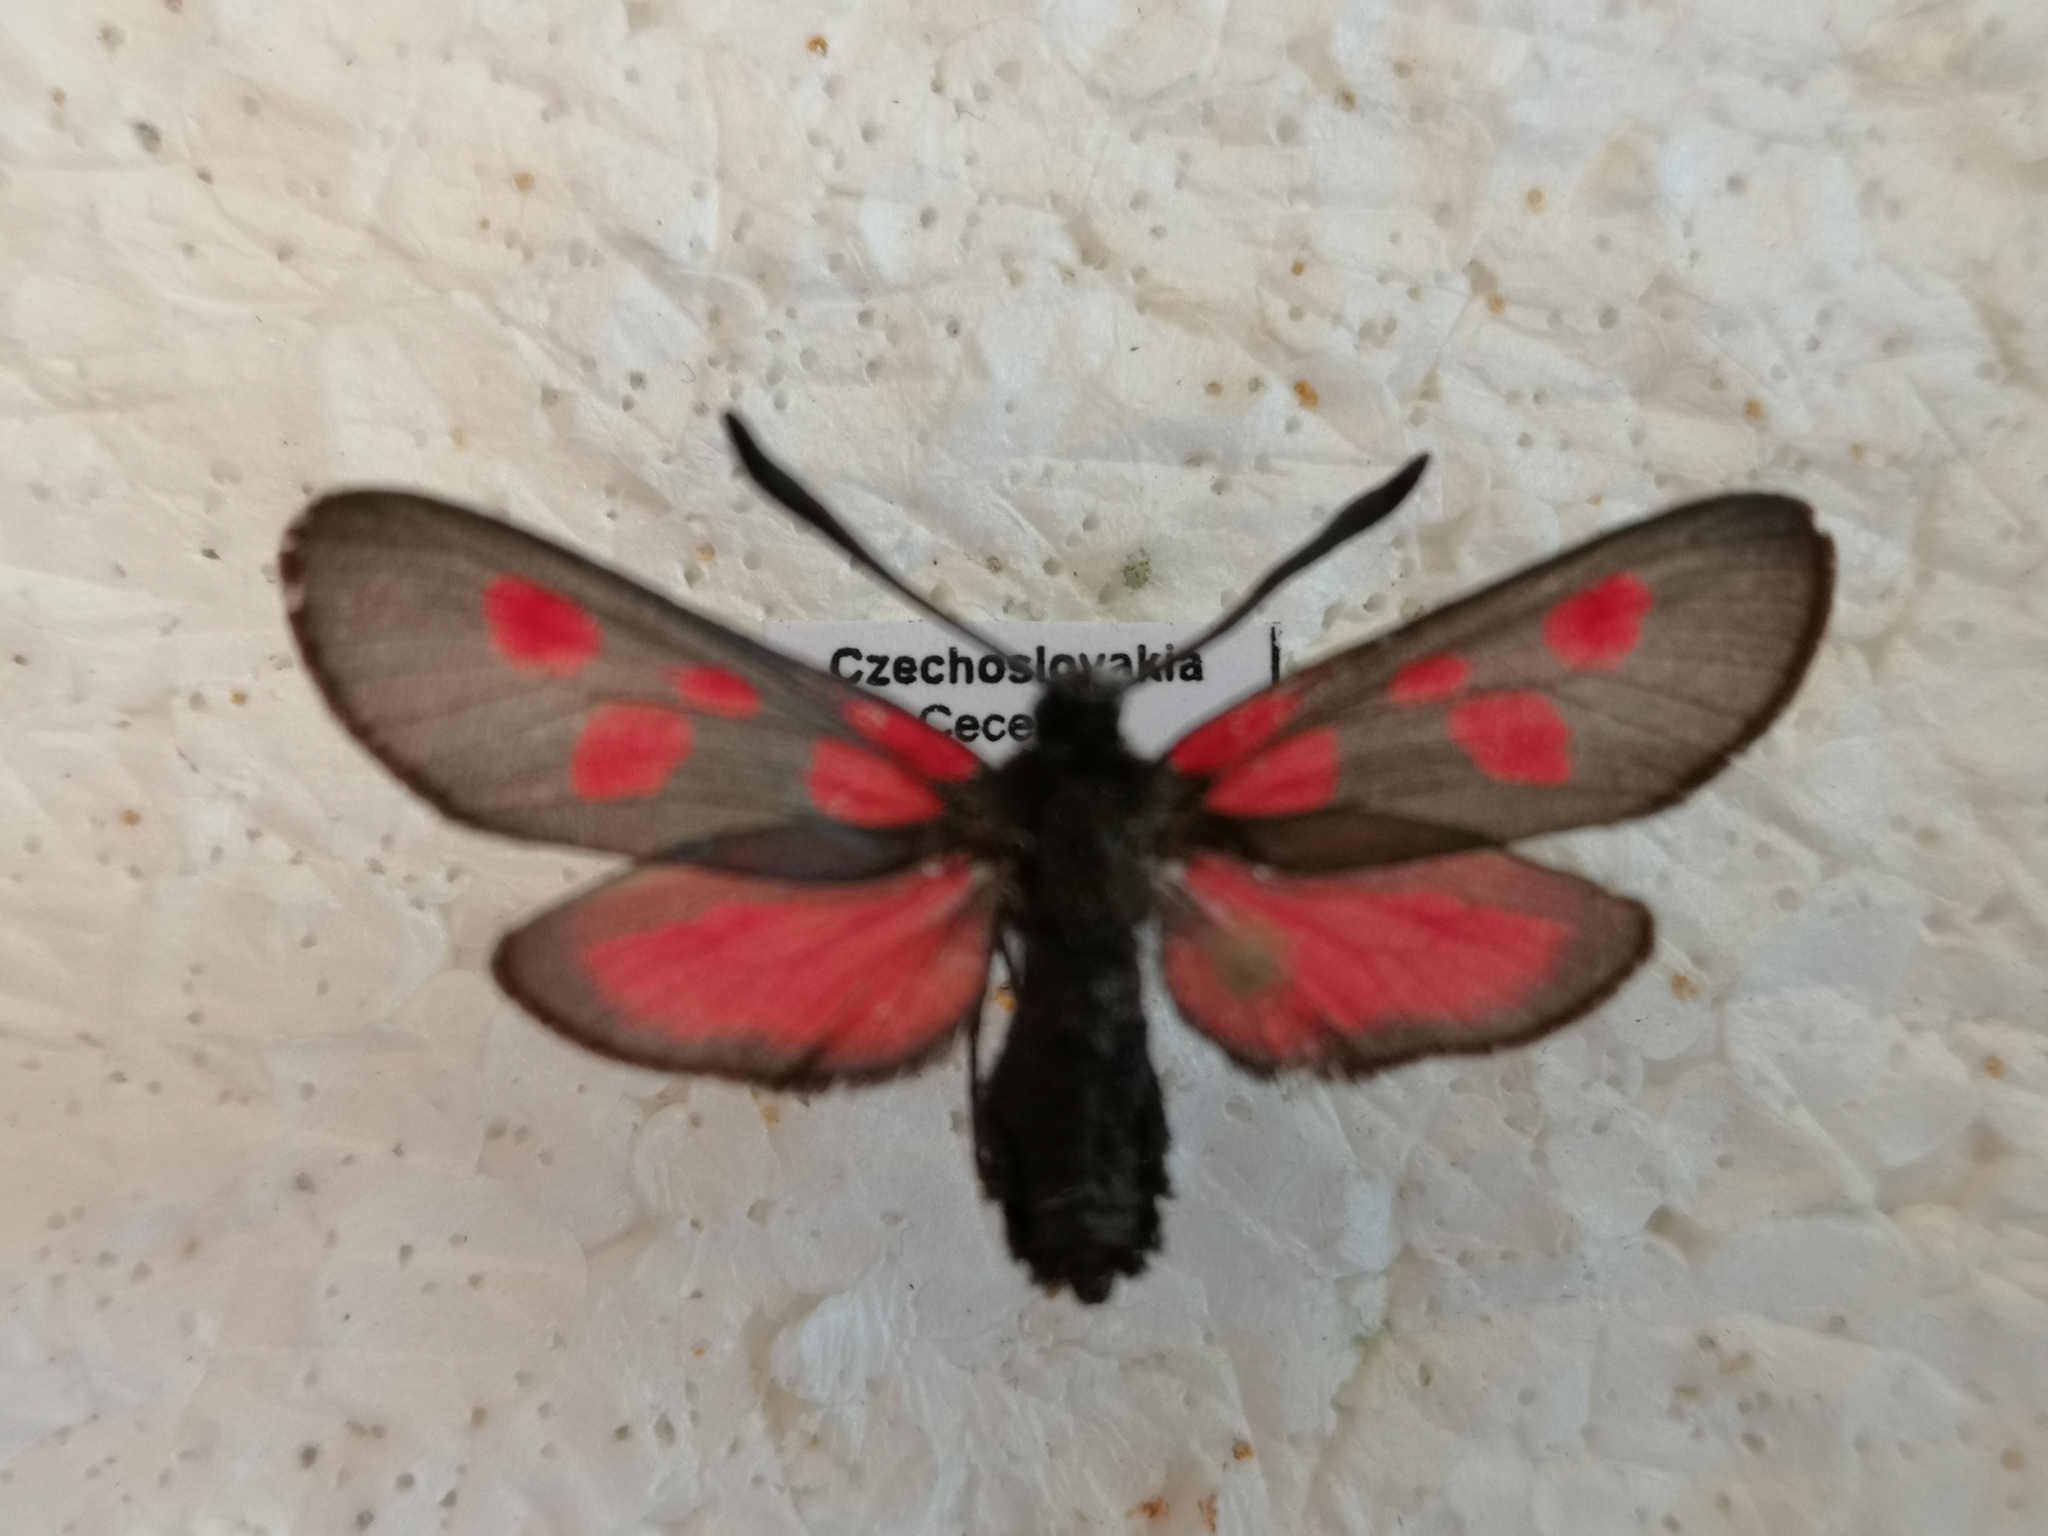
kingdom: Animalia
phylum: Arthropoda
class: Insecta
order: Lepidoptera
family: Zygaenidae
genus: Zygaena
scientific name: Zygaena viciae
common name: New forest burnet
